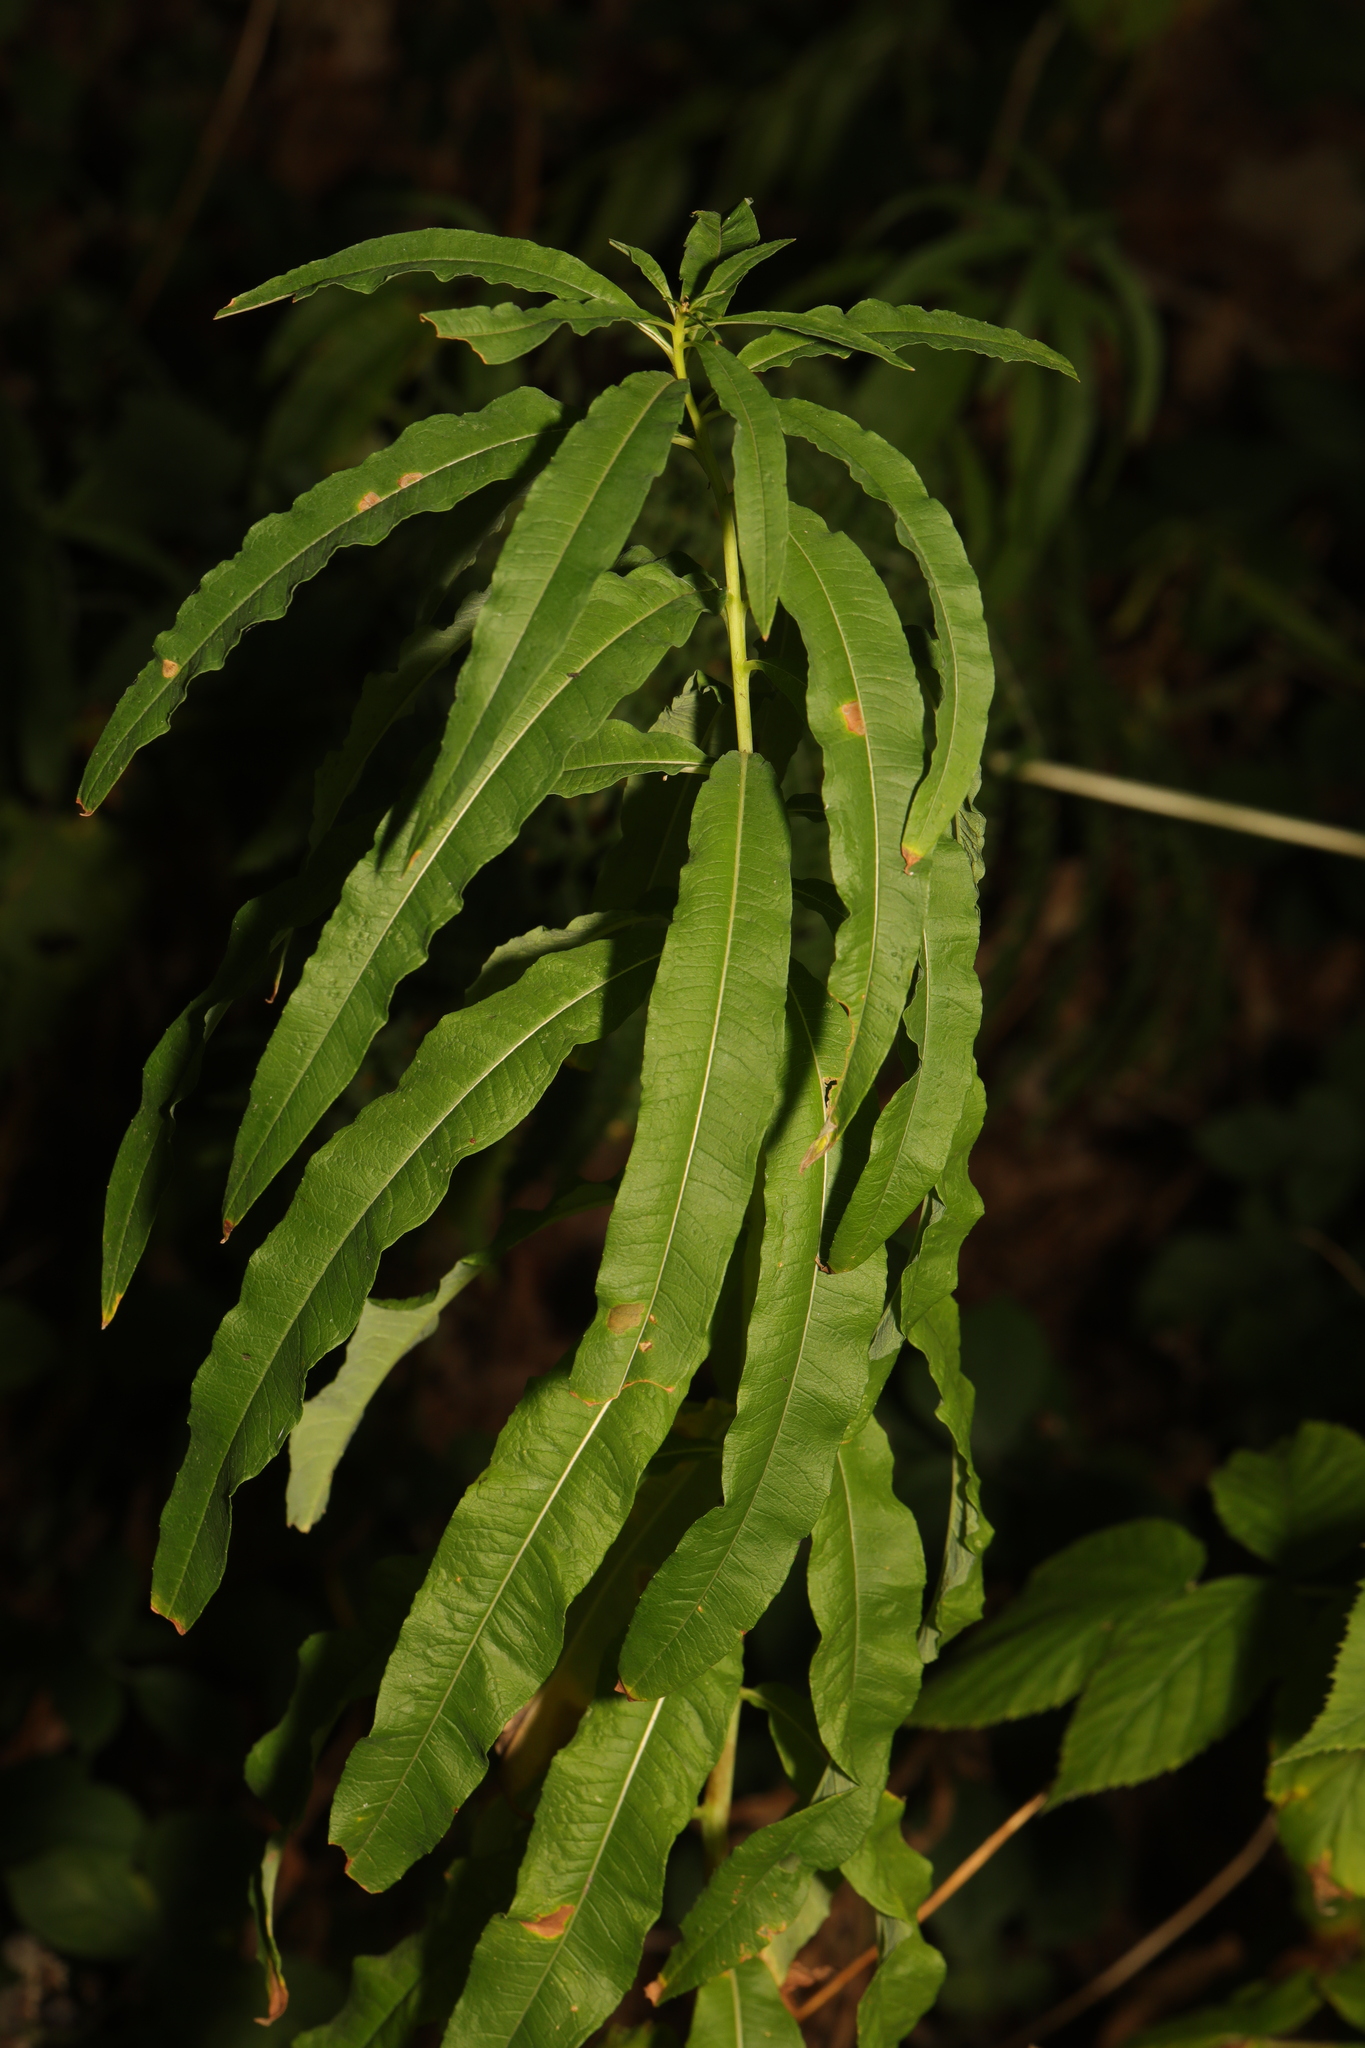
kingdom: Plantae
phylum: Tracheophyta
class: Magnoliopsida
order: Myrtales
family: Onagraceae
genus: Chamaenerion
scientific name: Chamaenerion angustifolium
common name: Fireweed
